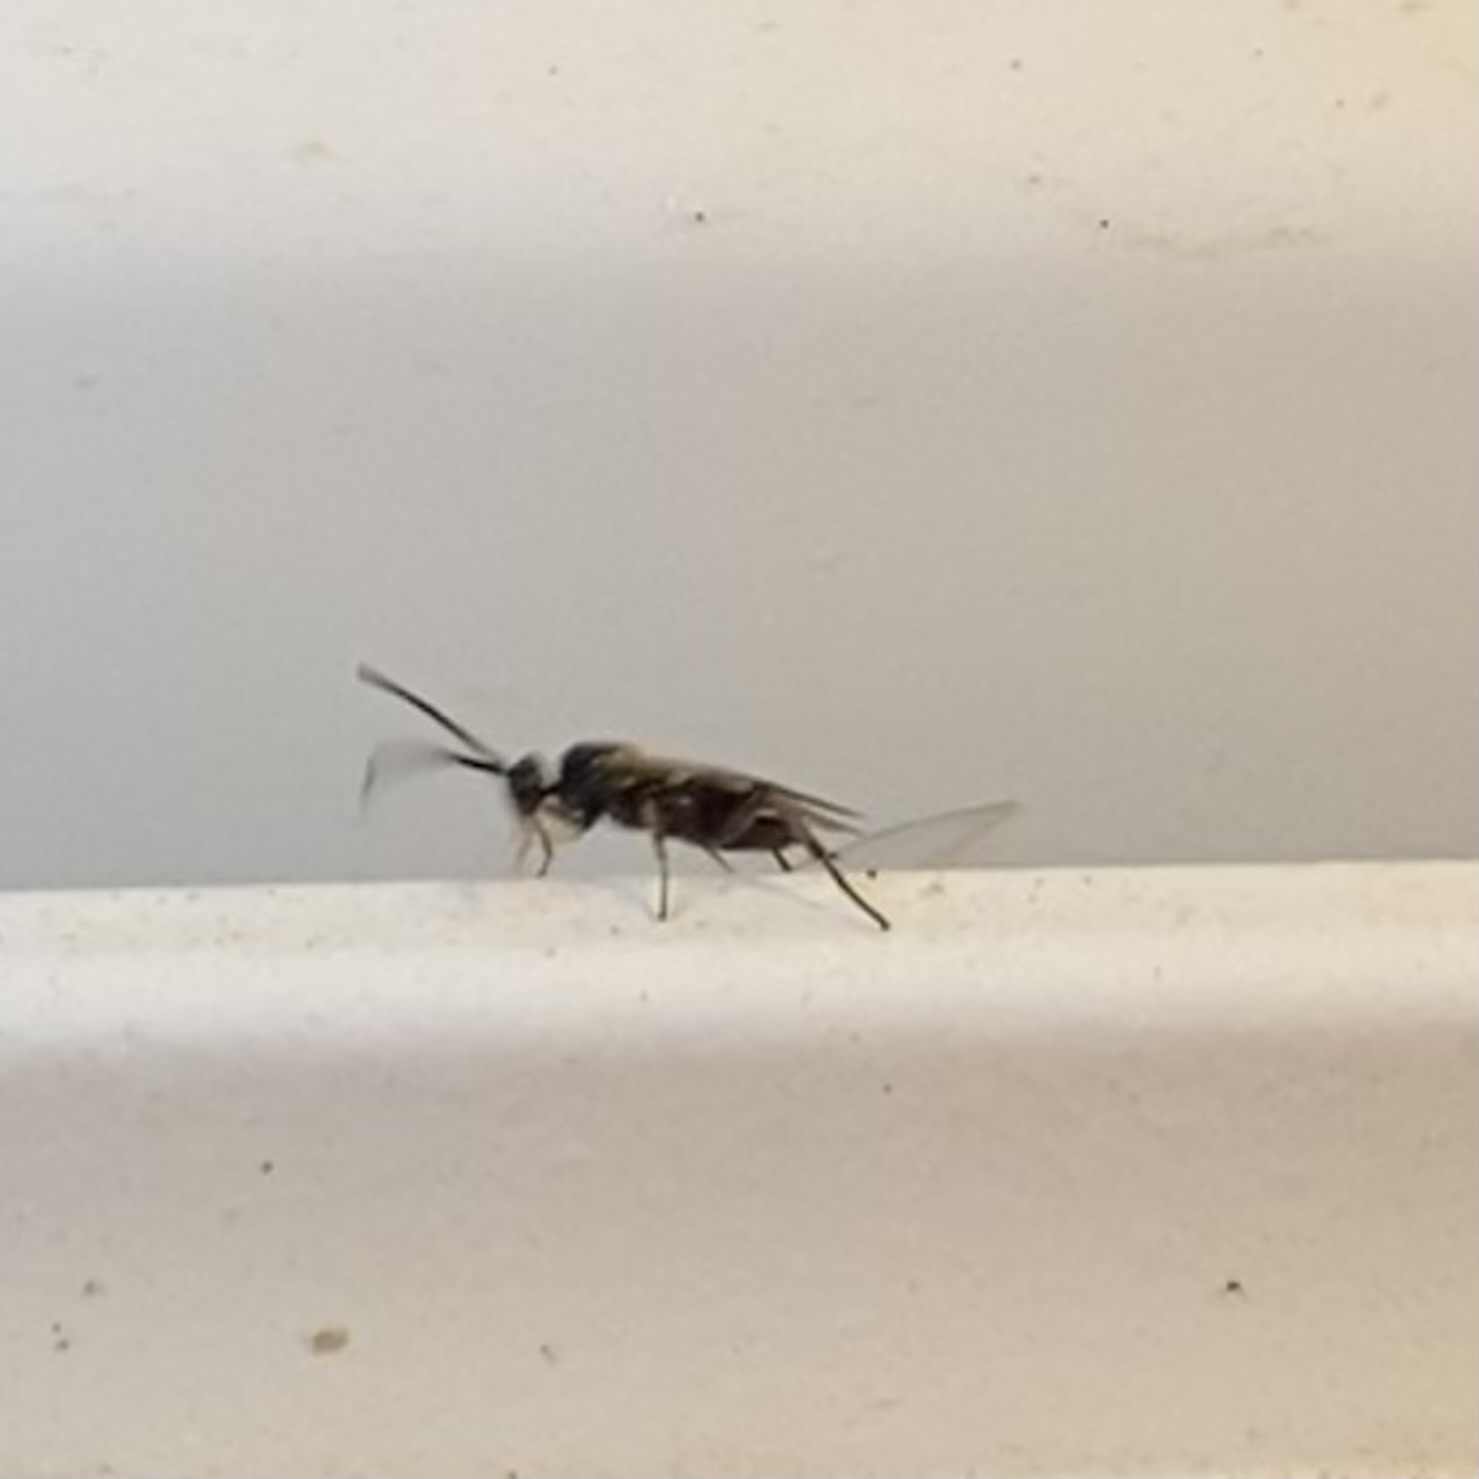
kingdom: Animalia
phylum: Arthropoda
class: Insecta
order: Hymenoptera
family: Braconidae
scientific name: Braconidae
